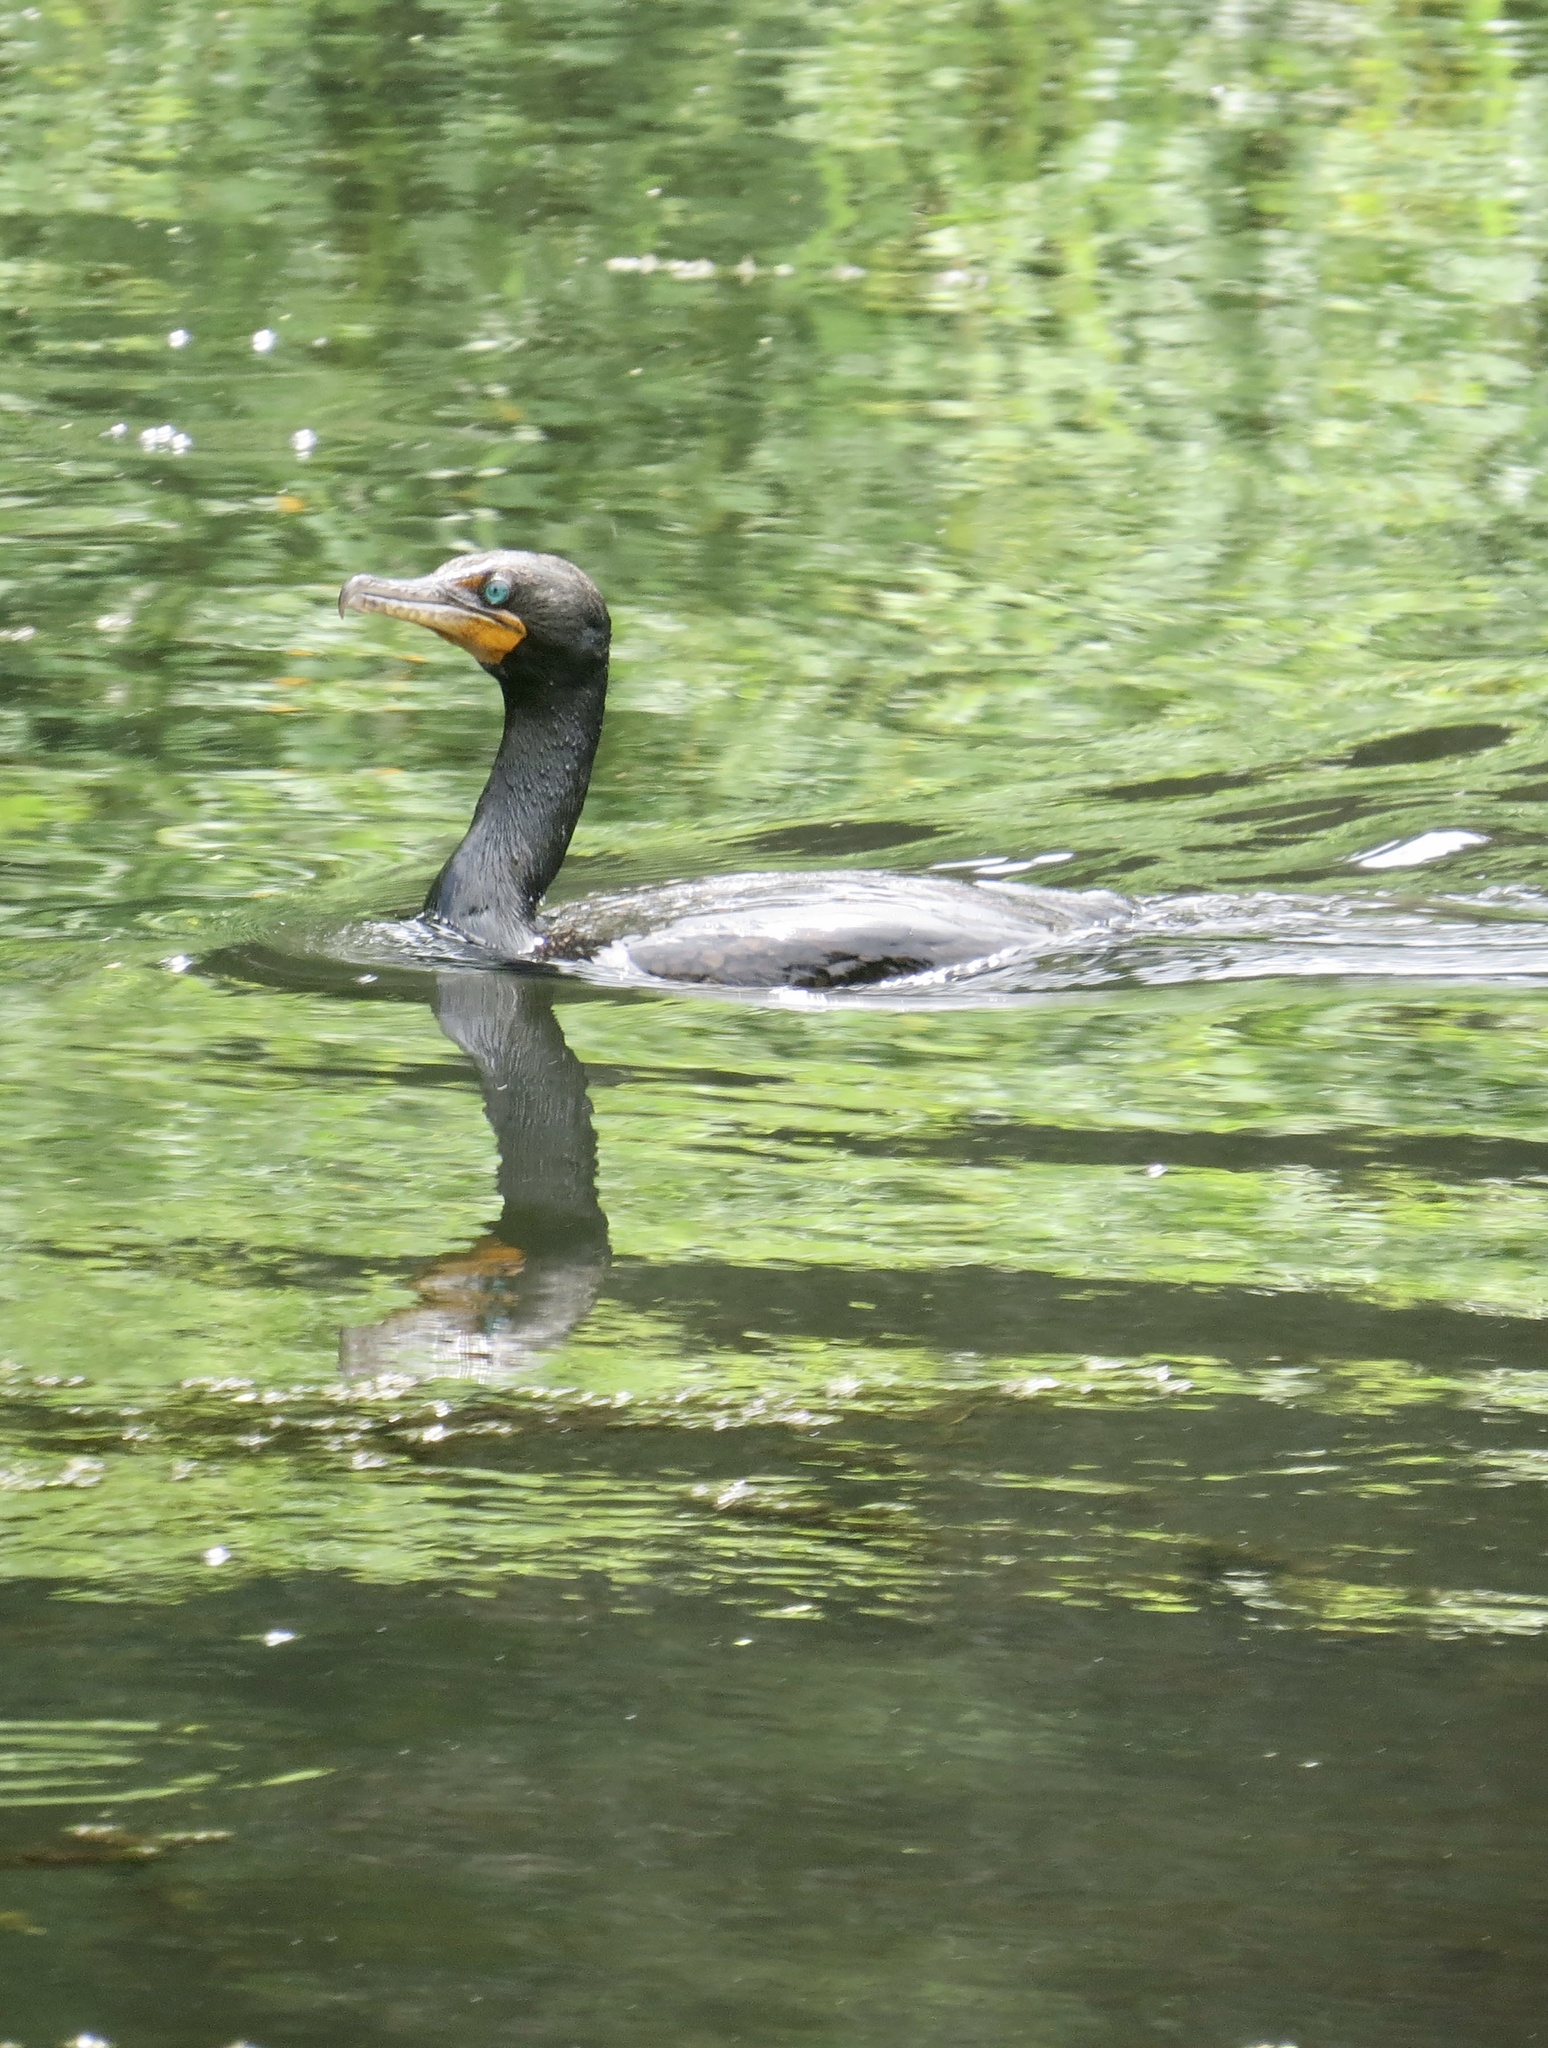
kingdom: Animalia
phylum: Chordata
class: Aves
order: Suliformes
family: Phalacrocoracidae
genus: Phalacrocorax
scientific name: Phalacrocorax auritus
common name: Double-crested cormorant
